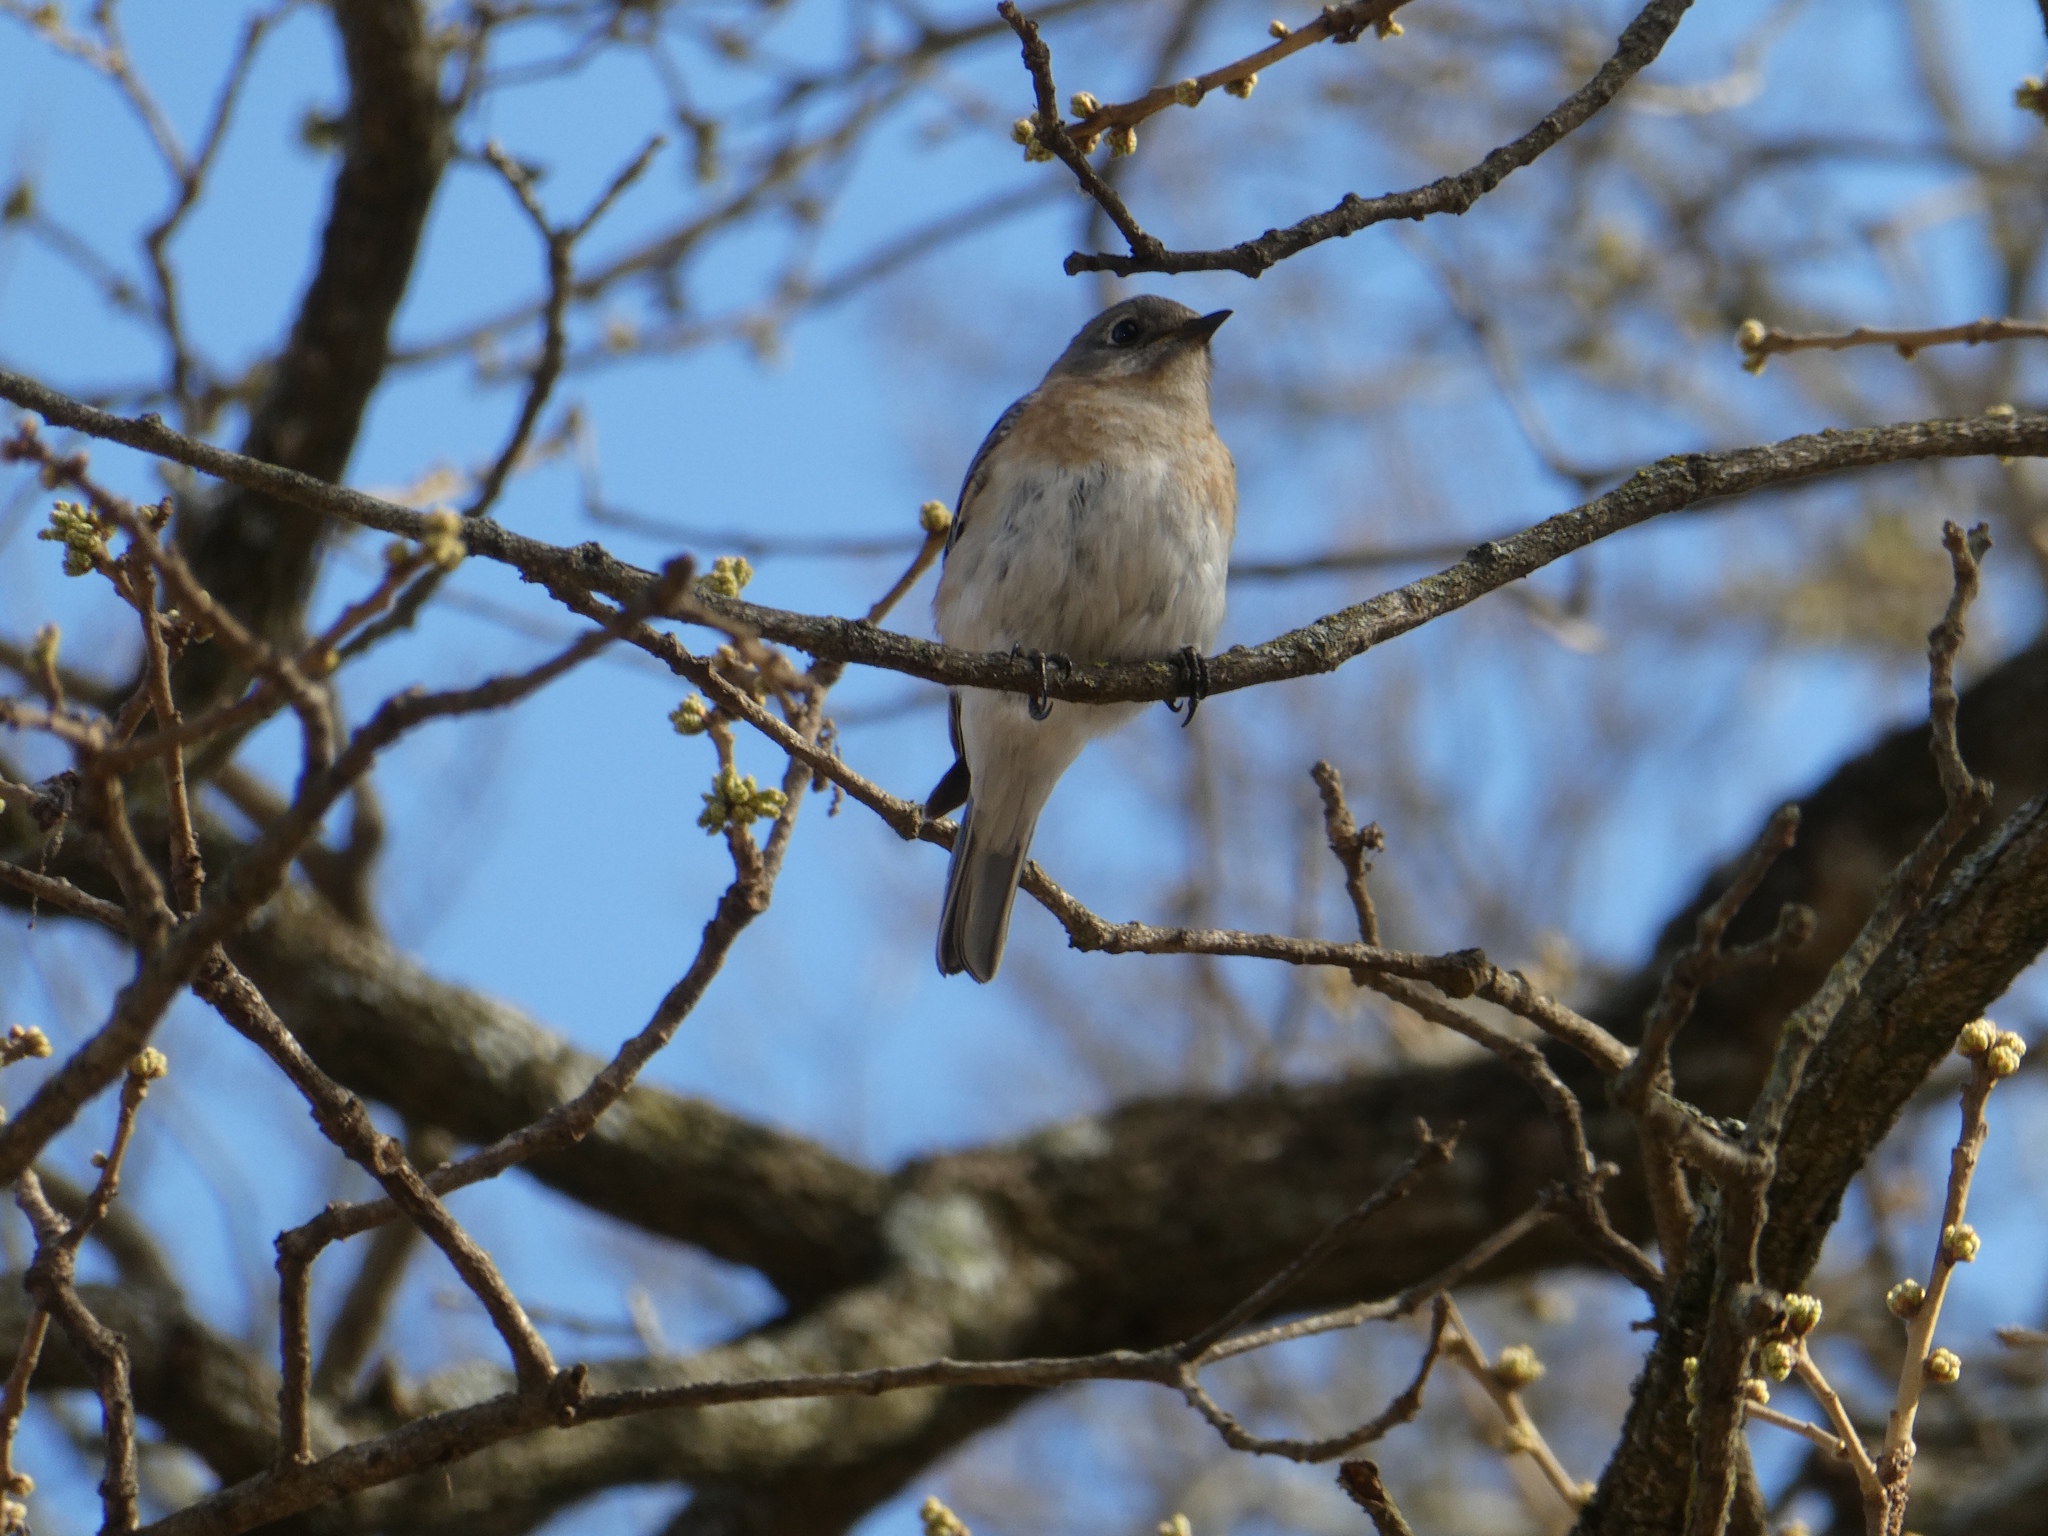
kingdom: Animalia
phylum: Chordata
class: Aves
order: Passeriformes
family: Turdidae
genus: Sialia
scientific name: Sialia sialis
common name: Eastern bluebird
